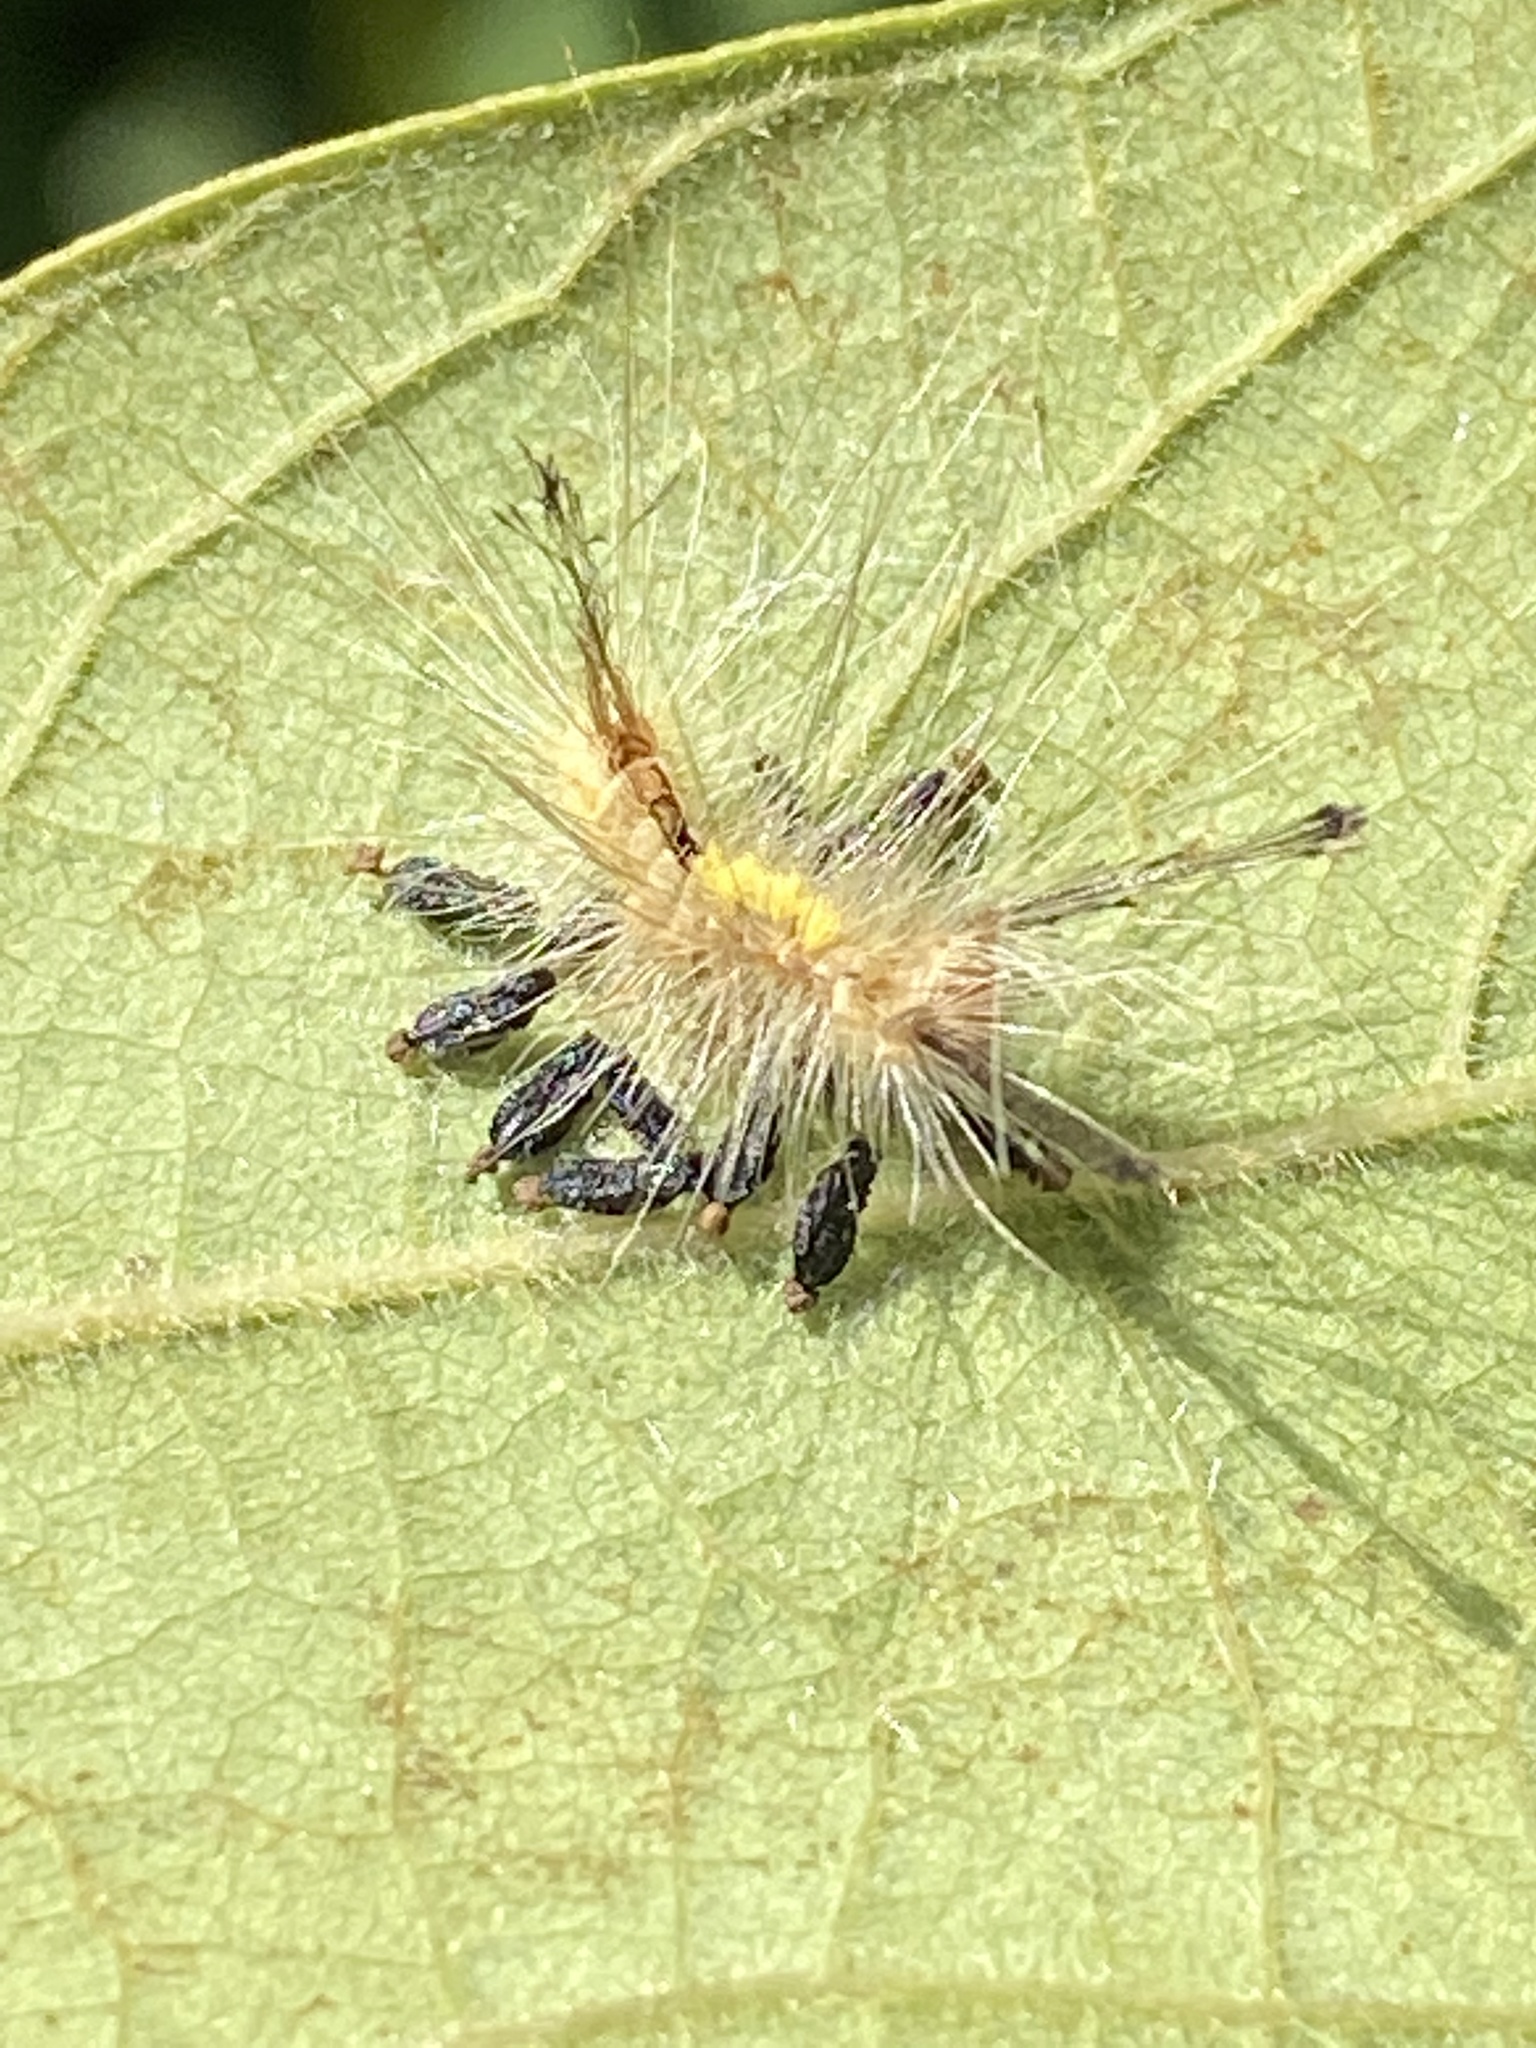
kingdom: Animalia
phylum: Arthropoda
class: Insecta
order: Lepidoptera
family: Erebidae
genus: Orgyia
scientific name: Orgyia definita
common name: Definite tussock moth
